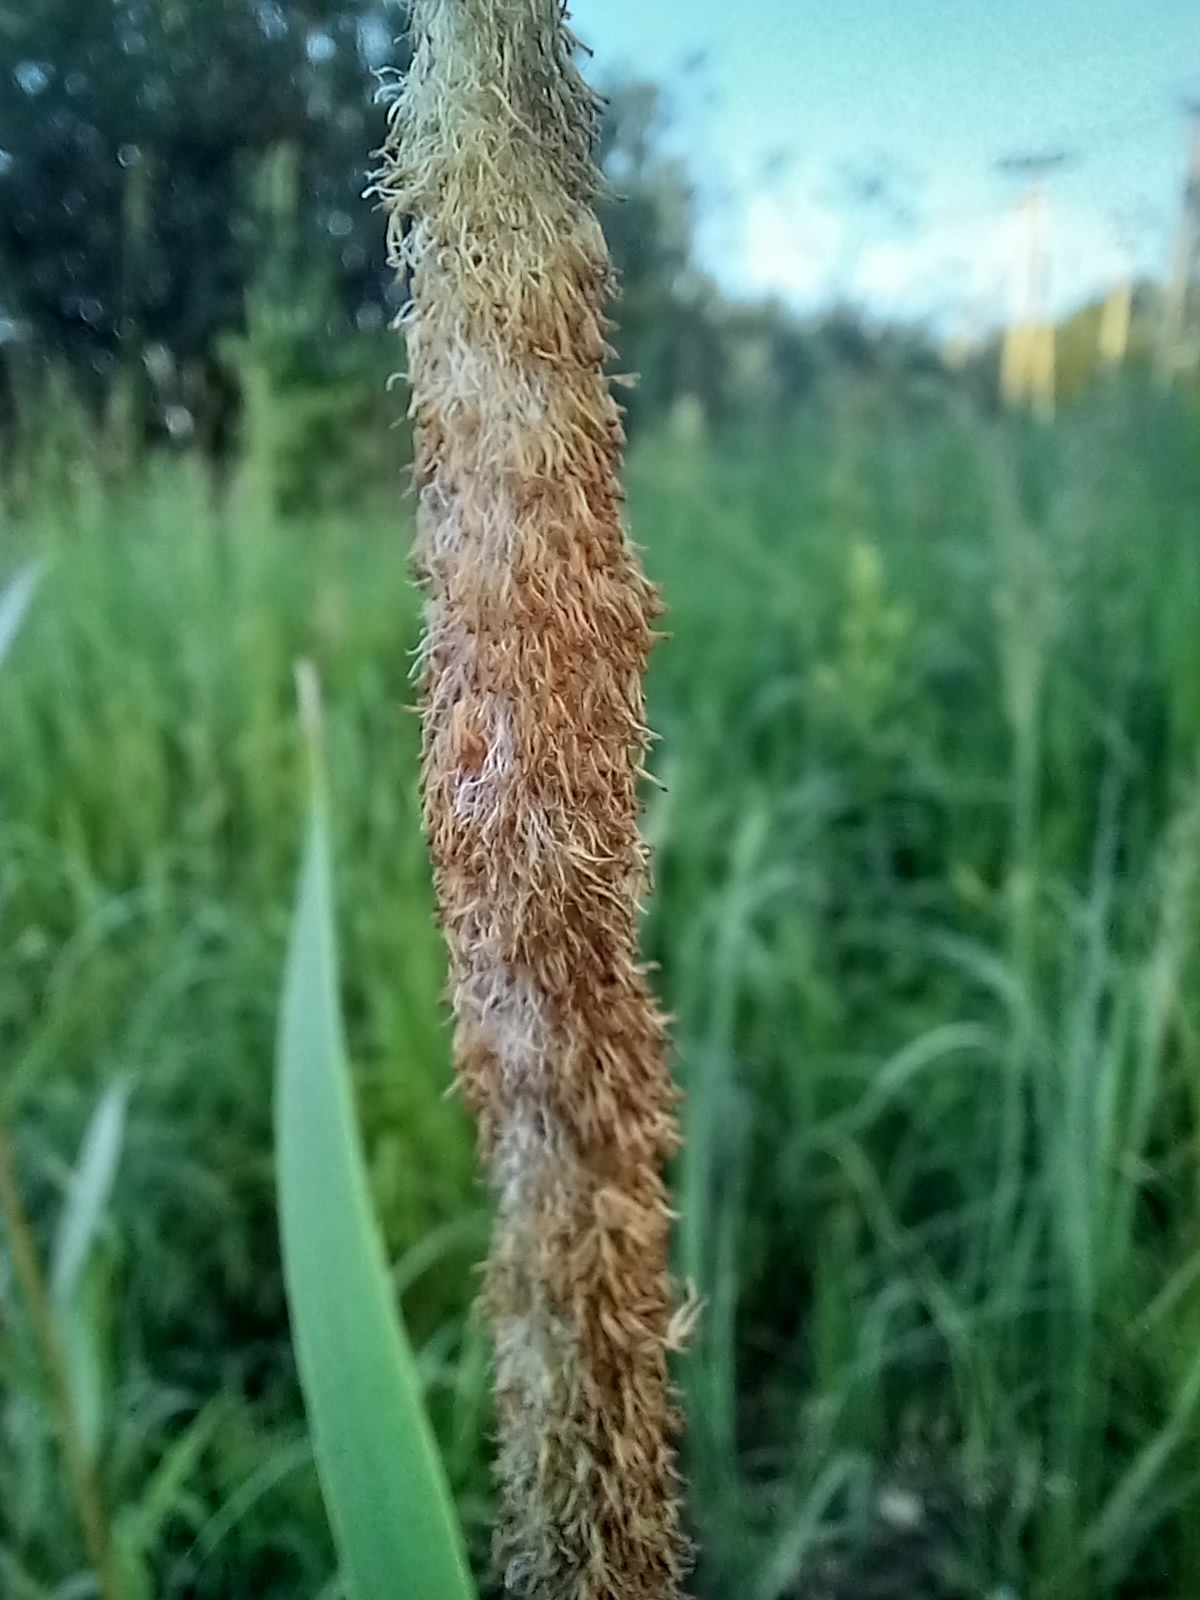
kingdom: Plantae
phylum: Tracheophyta
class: Liliopsida
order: Poales
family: Typhaceae
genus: Typha
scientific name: Typha latifolia
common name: Broadleaf cattail
